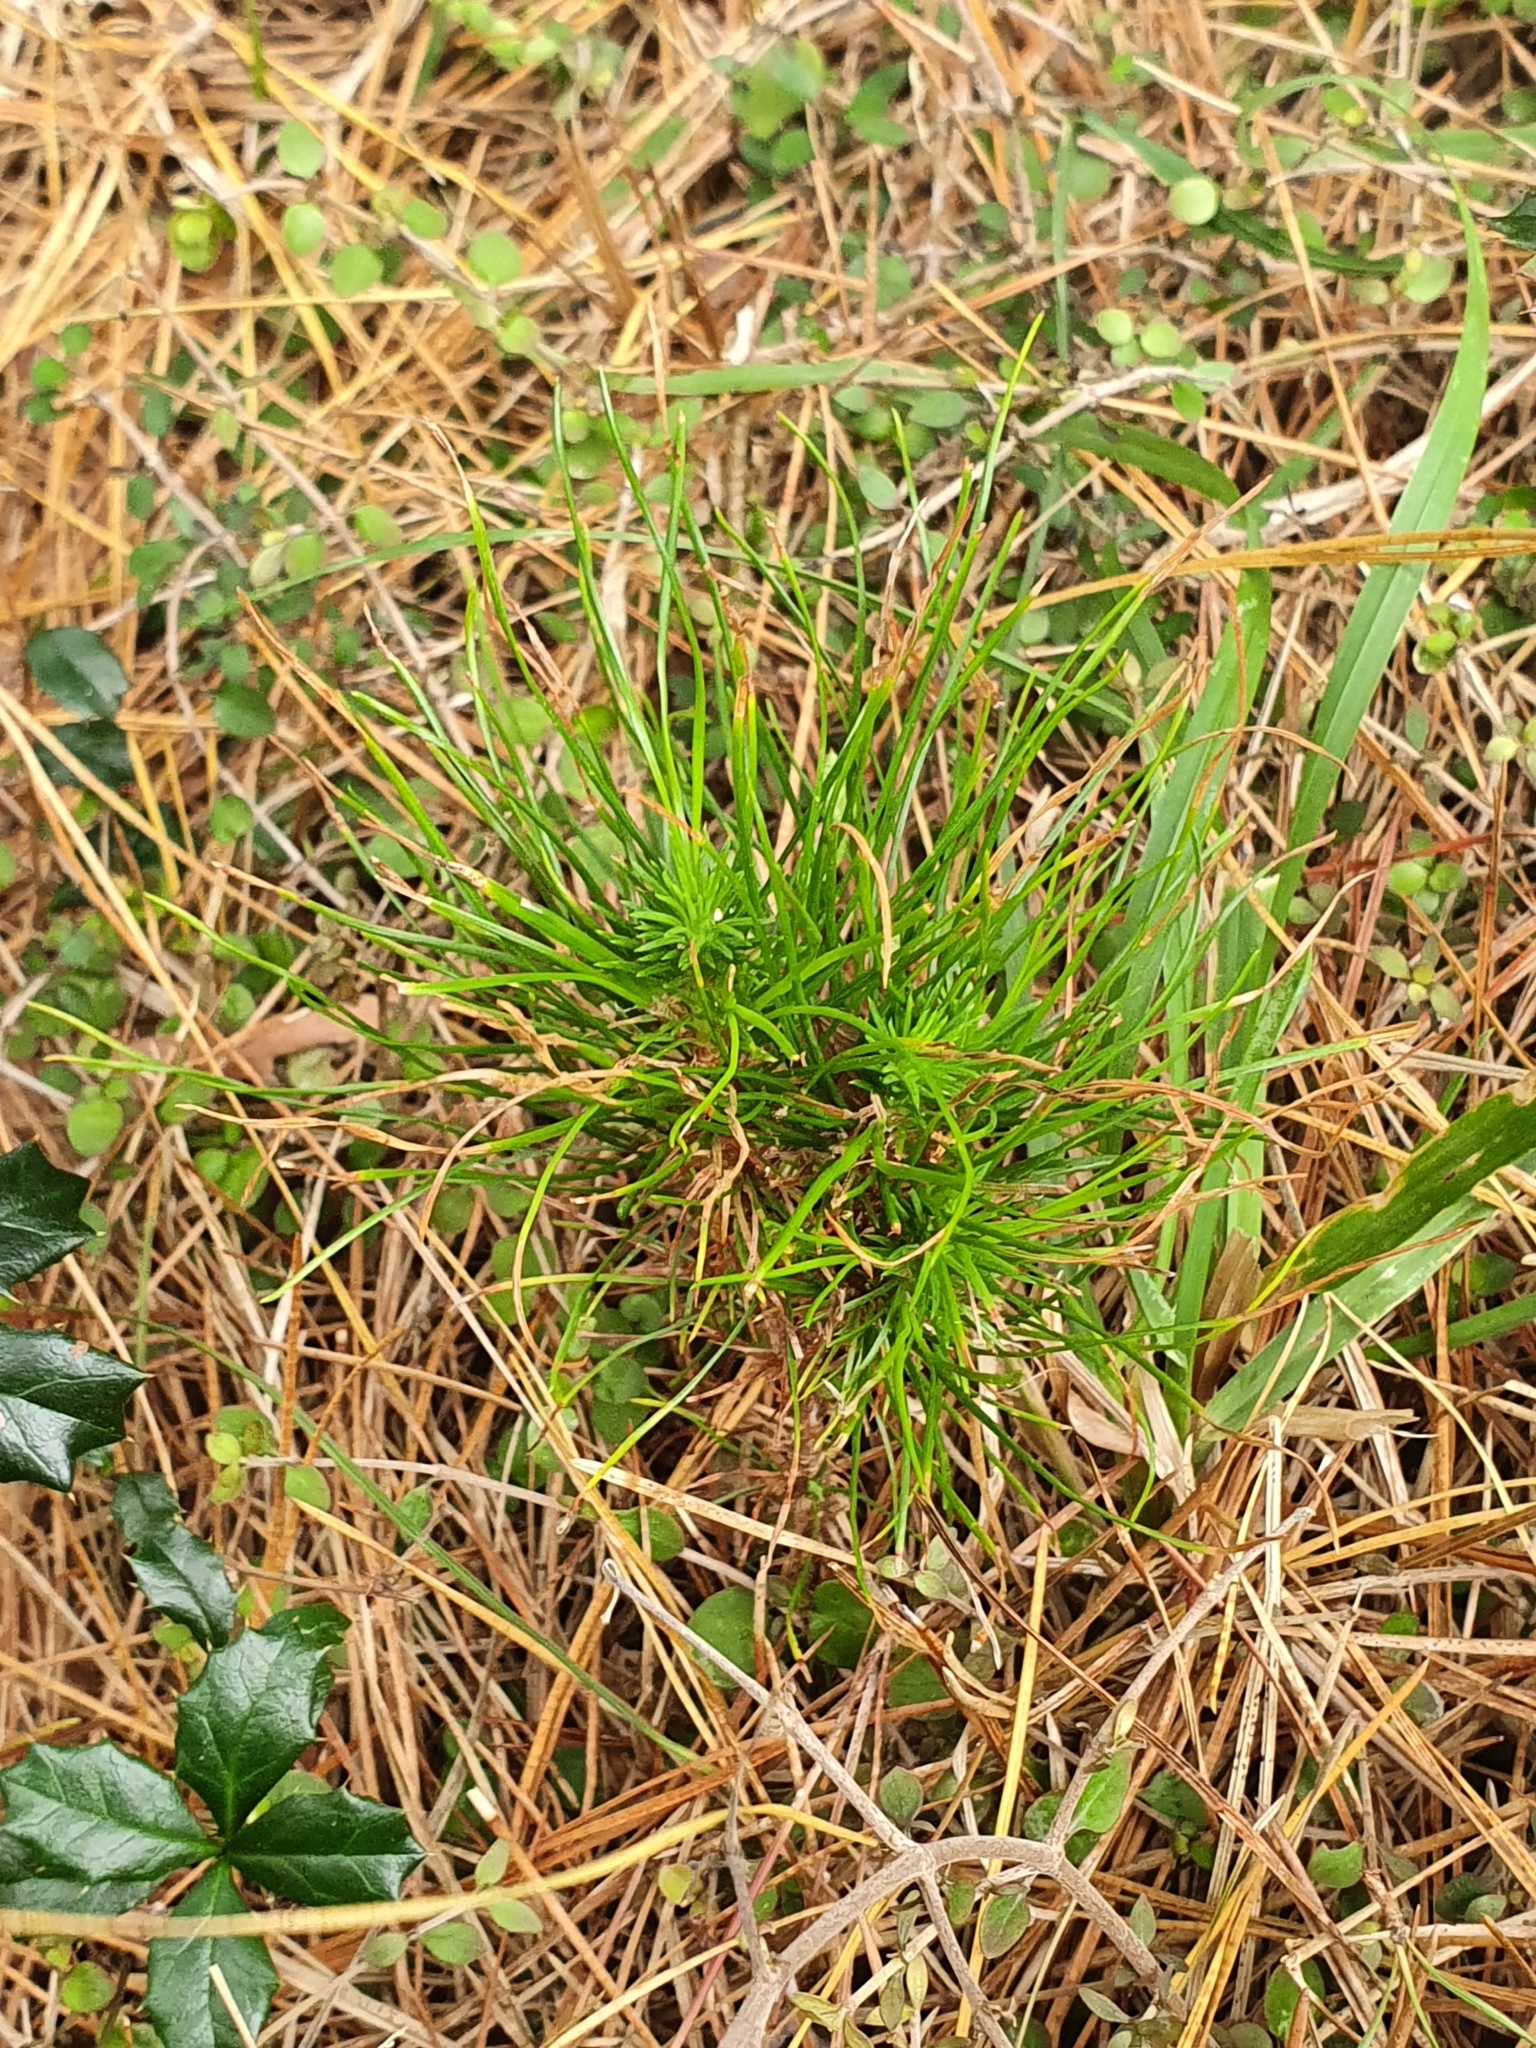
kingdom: Plantae
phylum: Tracheophyta
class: Pinopsida
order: Pinales
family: Pinaceae
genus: Pinus
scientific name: Pinus radiata
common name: Monterey pine
